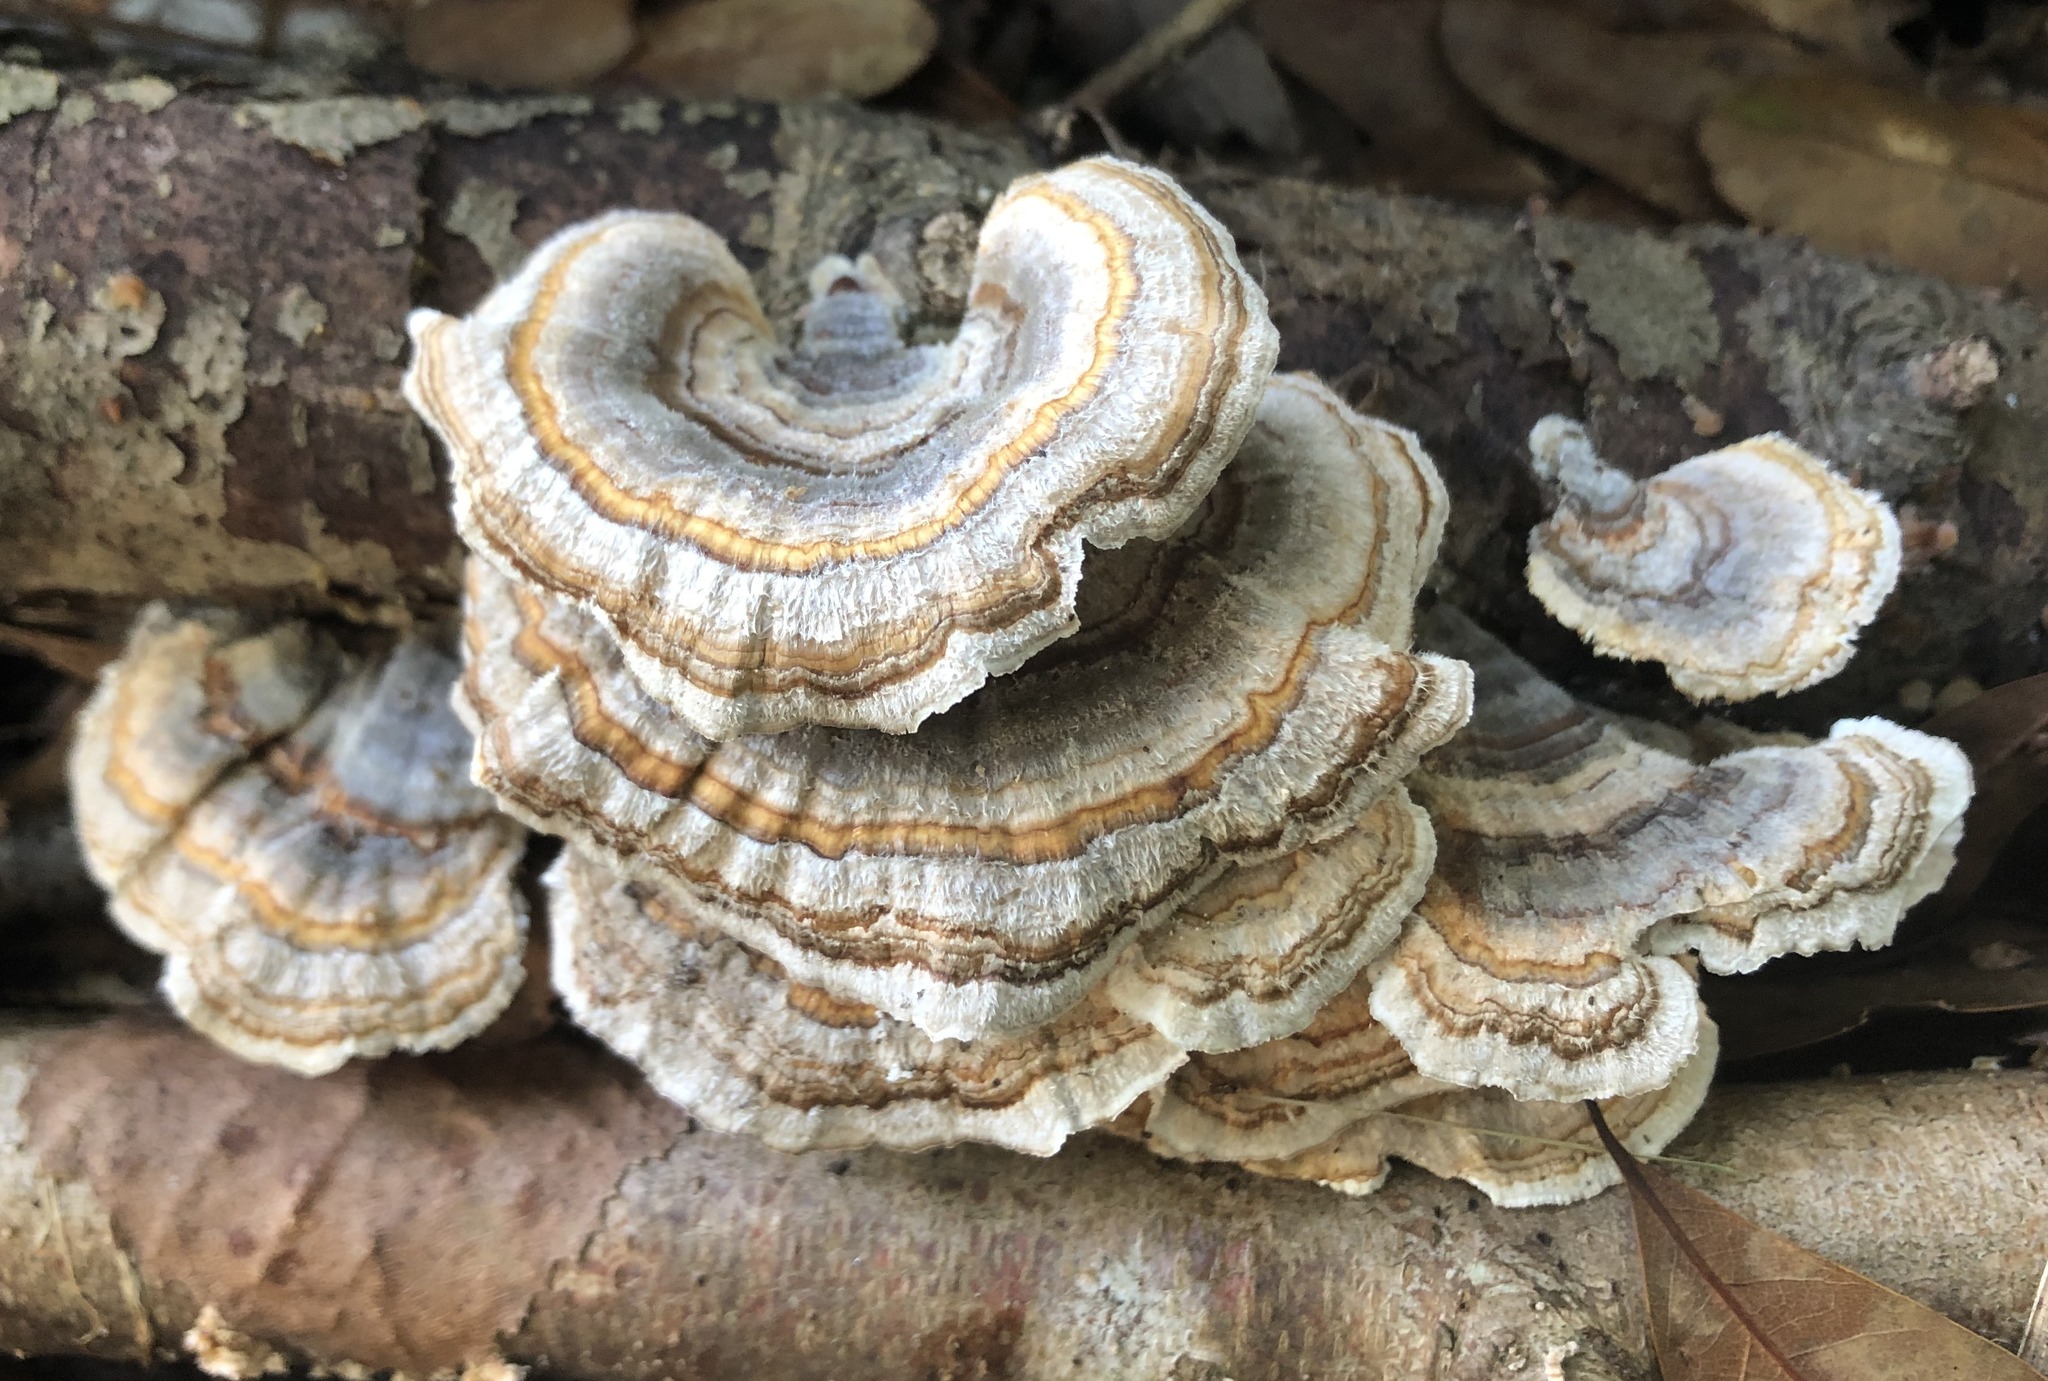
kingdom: Fungi
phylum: Basidiomycota
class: Agaricomycetes
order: Polyporales
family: Polyporaceae
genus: Trametes
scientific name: Trametes versicolor
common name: Turkeytail
